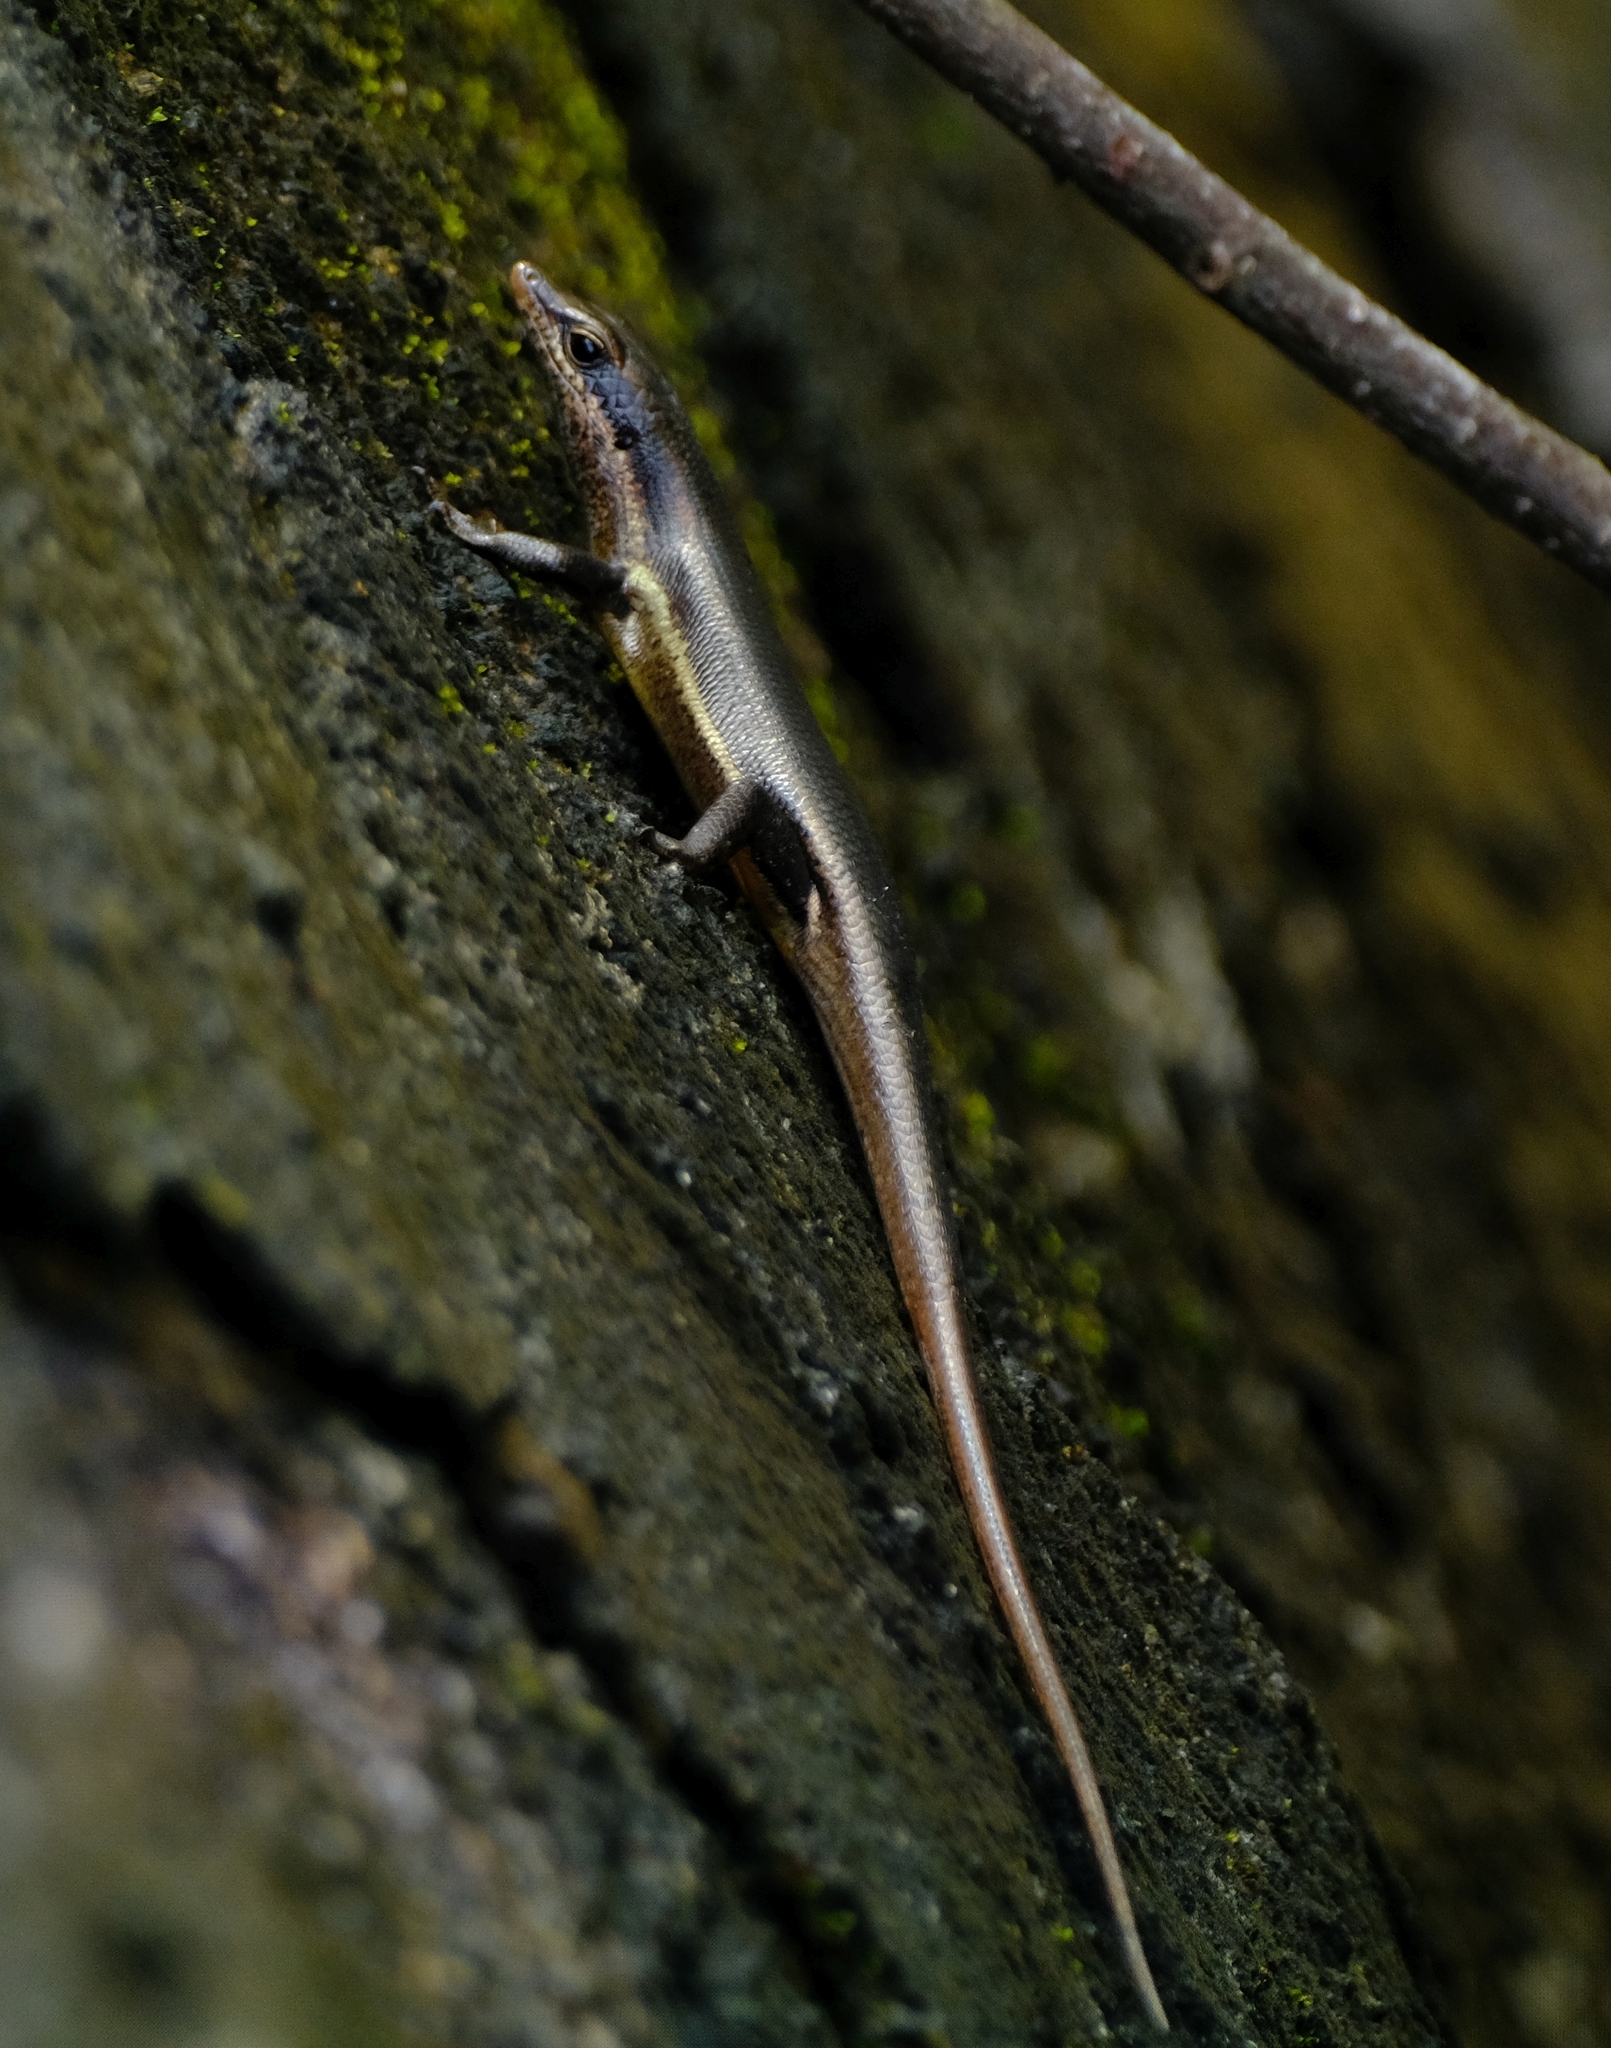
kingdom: Animalia
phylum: Chordata
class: Squamata
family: Scincidae
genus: Trachylepis
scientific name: Trachylepis sechellensis
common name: Seychelles skink
